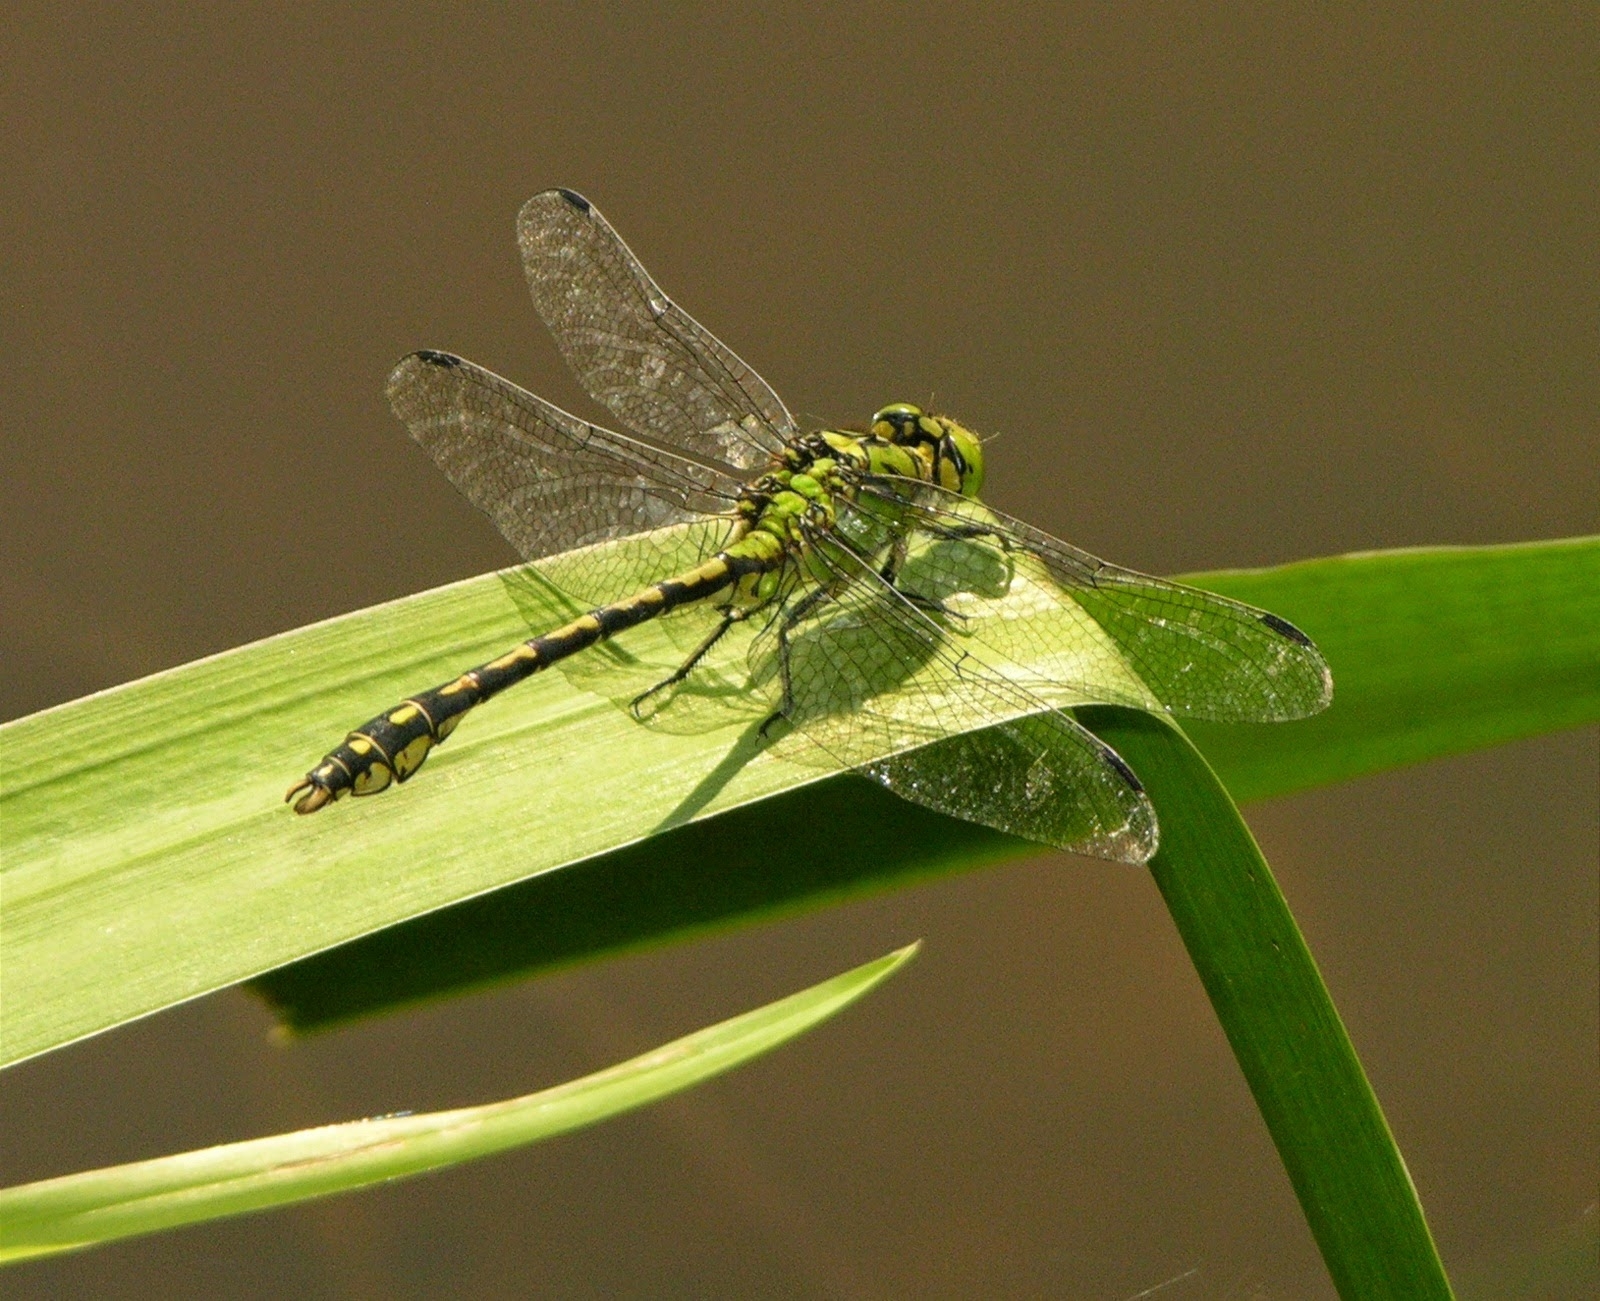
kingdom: Animalia
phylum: Arthropoda
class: Insecta
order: Odonata
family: Gomphidae
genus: Ophiogomphus
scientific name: Ophiogomphus cecilia
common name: Green snaketail
